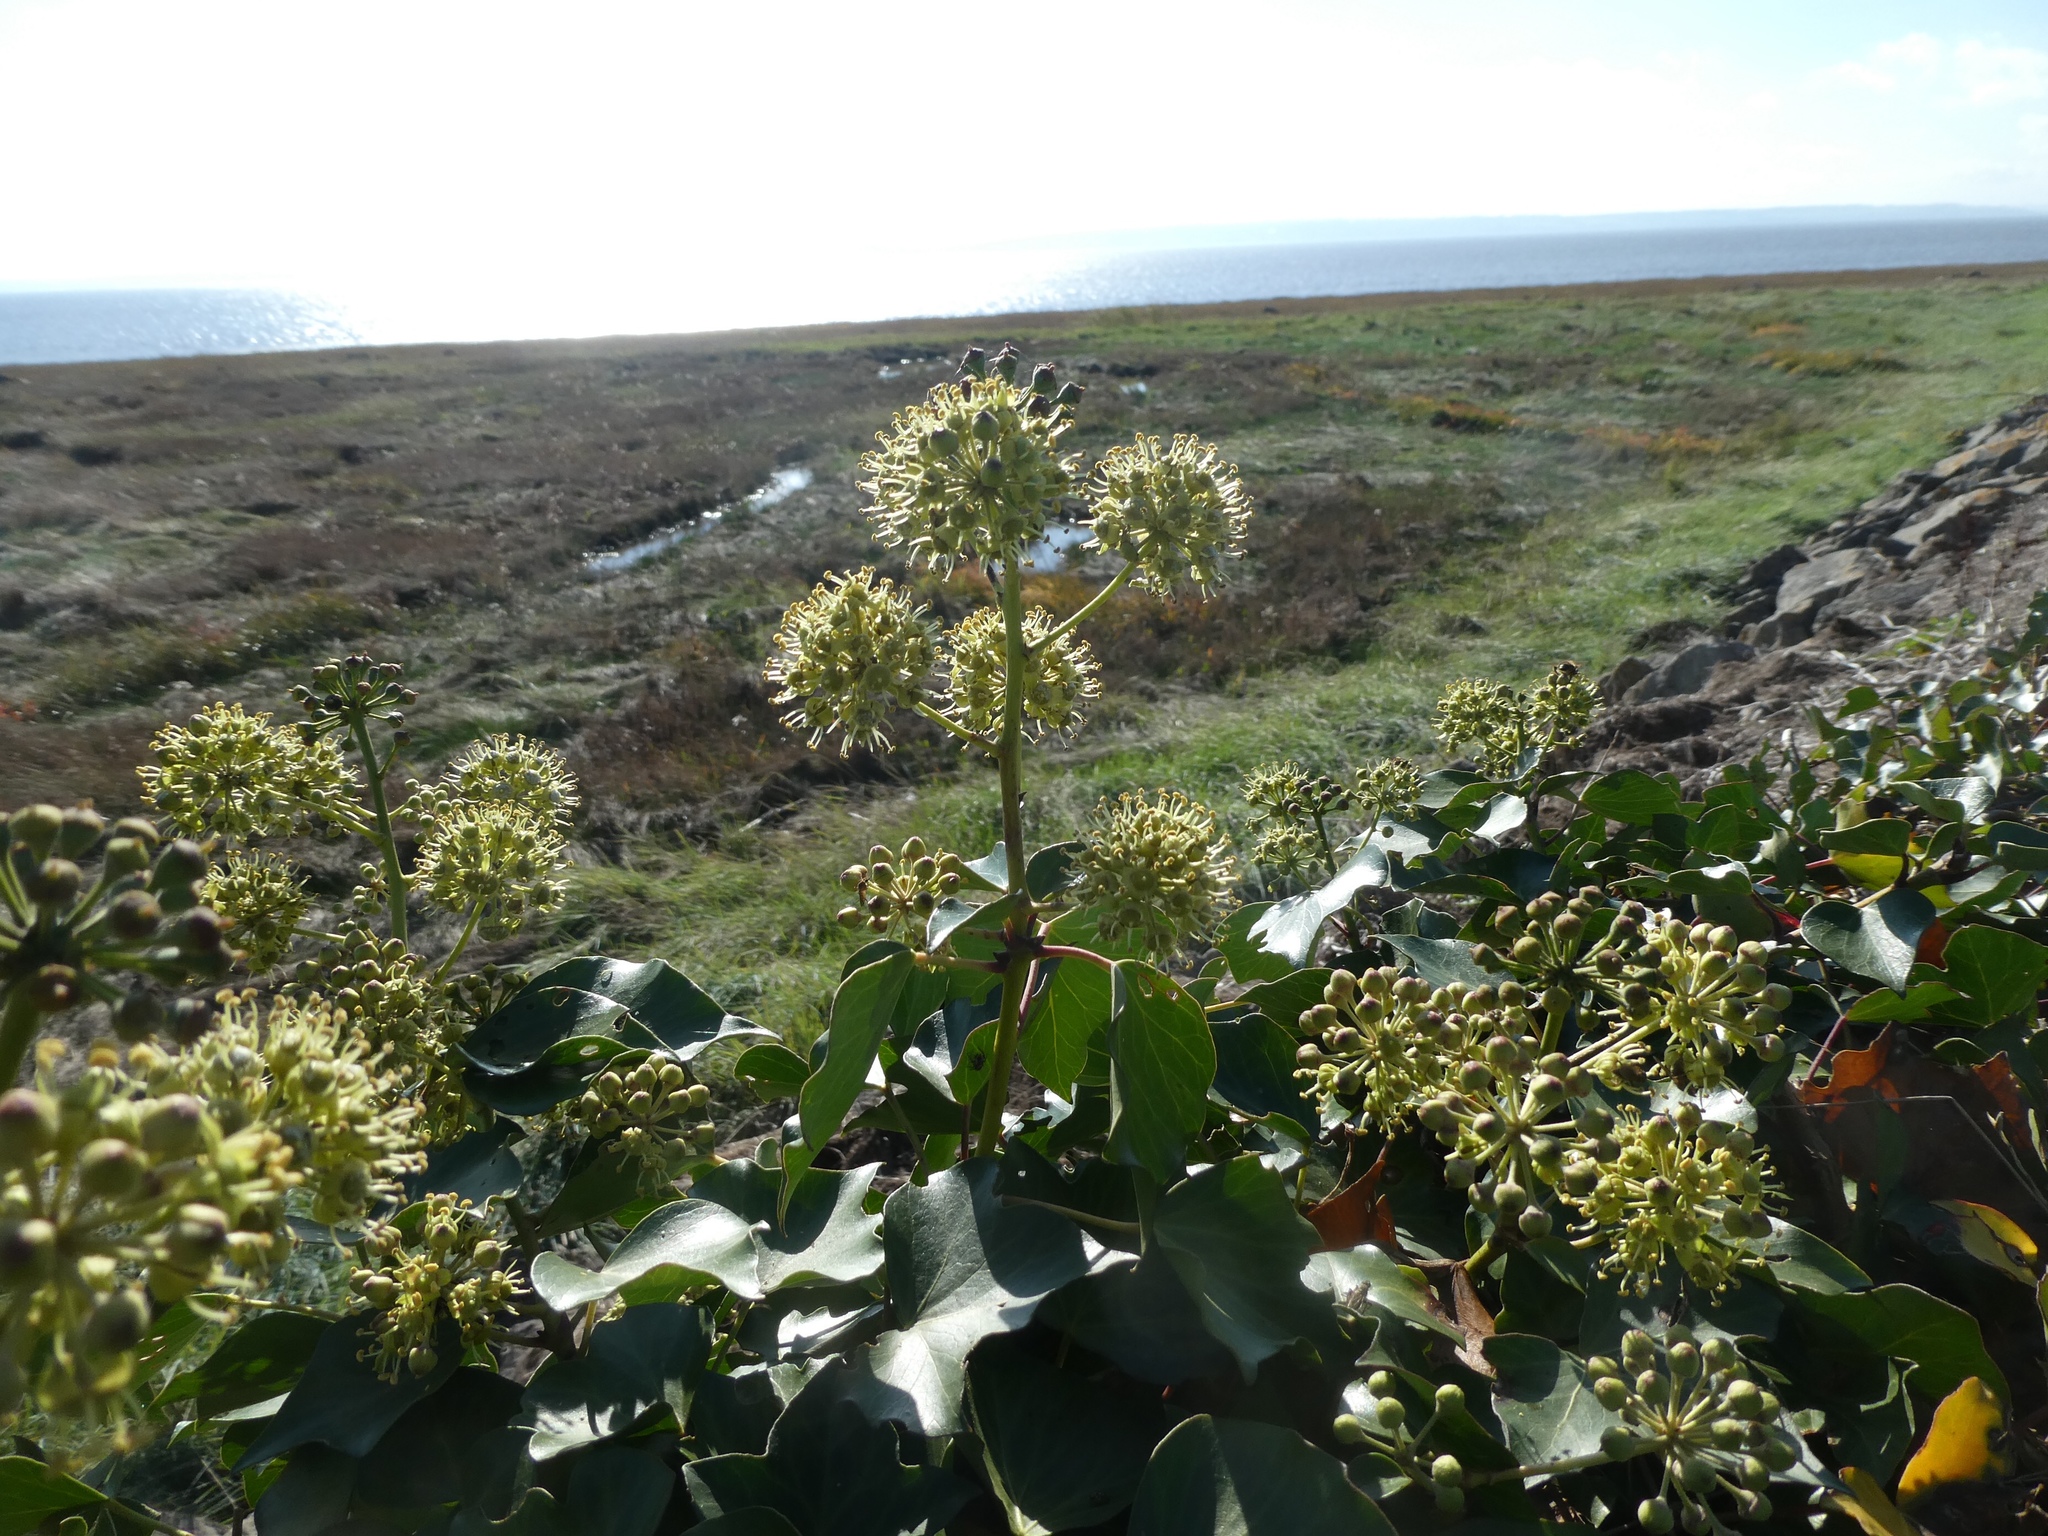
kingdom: Plantae
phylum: Tracheophyta
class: Magnoliopsida
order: Apiales
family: Araliaceae
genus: Hedera
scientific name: Hedera helix
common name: Ivy
